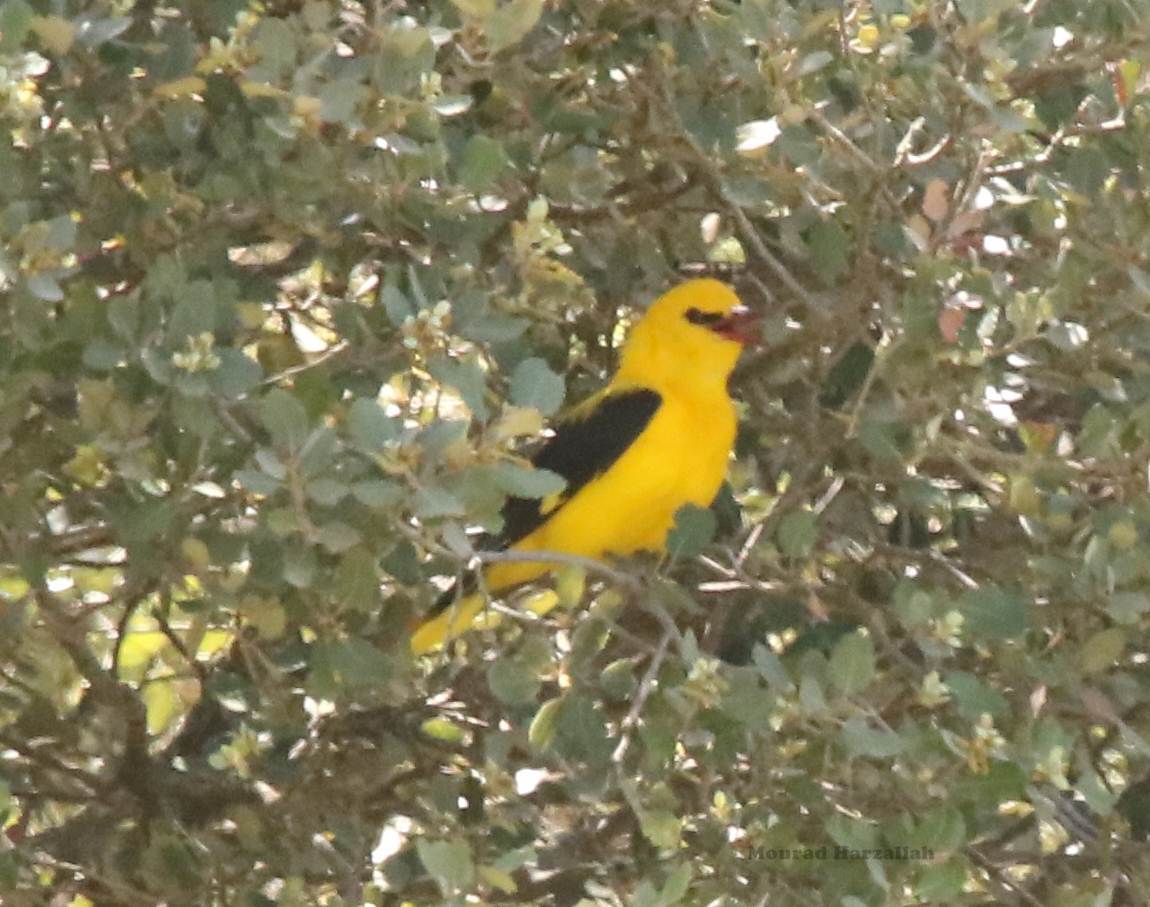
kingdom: Animalia
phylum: Chordata
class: Aves
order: Passeriformes
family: Oriolidae
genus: Oriolus
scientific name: Oriolus oriolus
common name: Eurasian golden oriole
